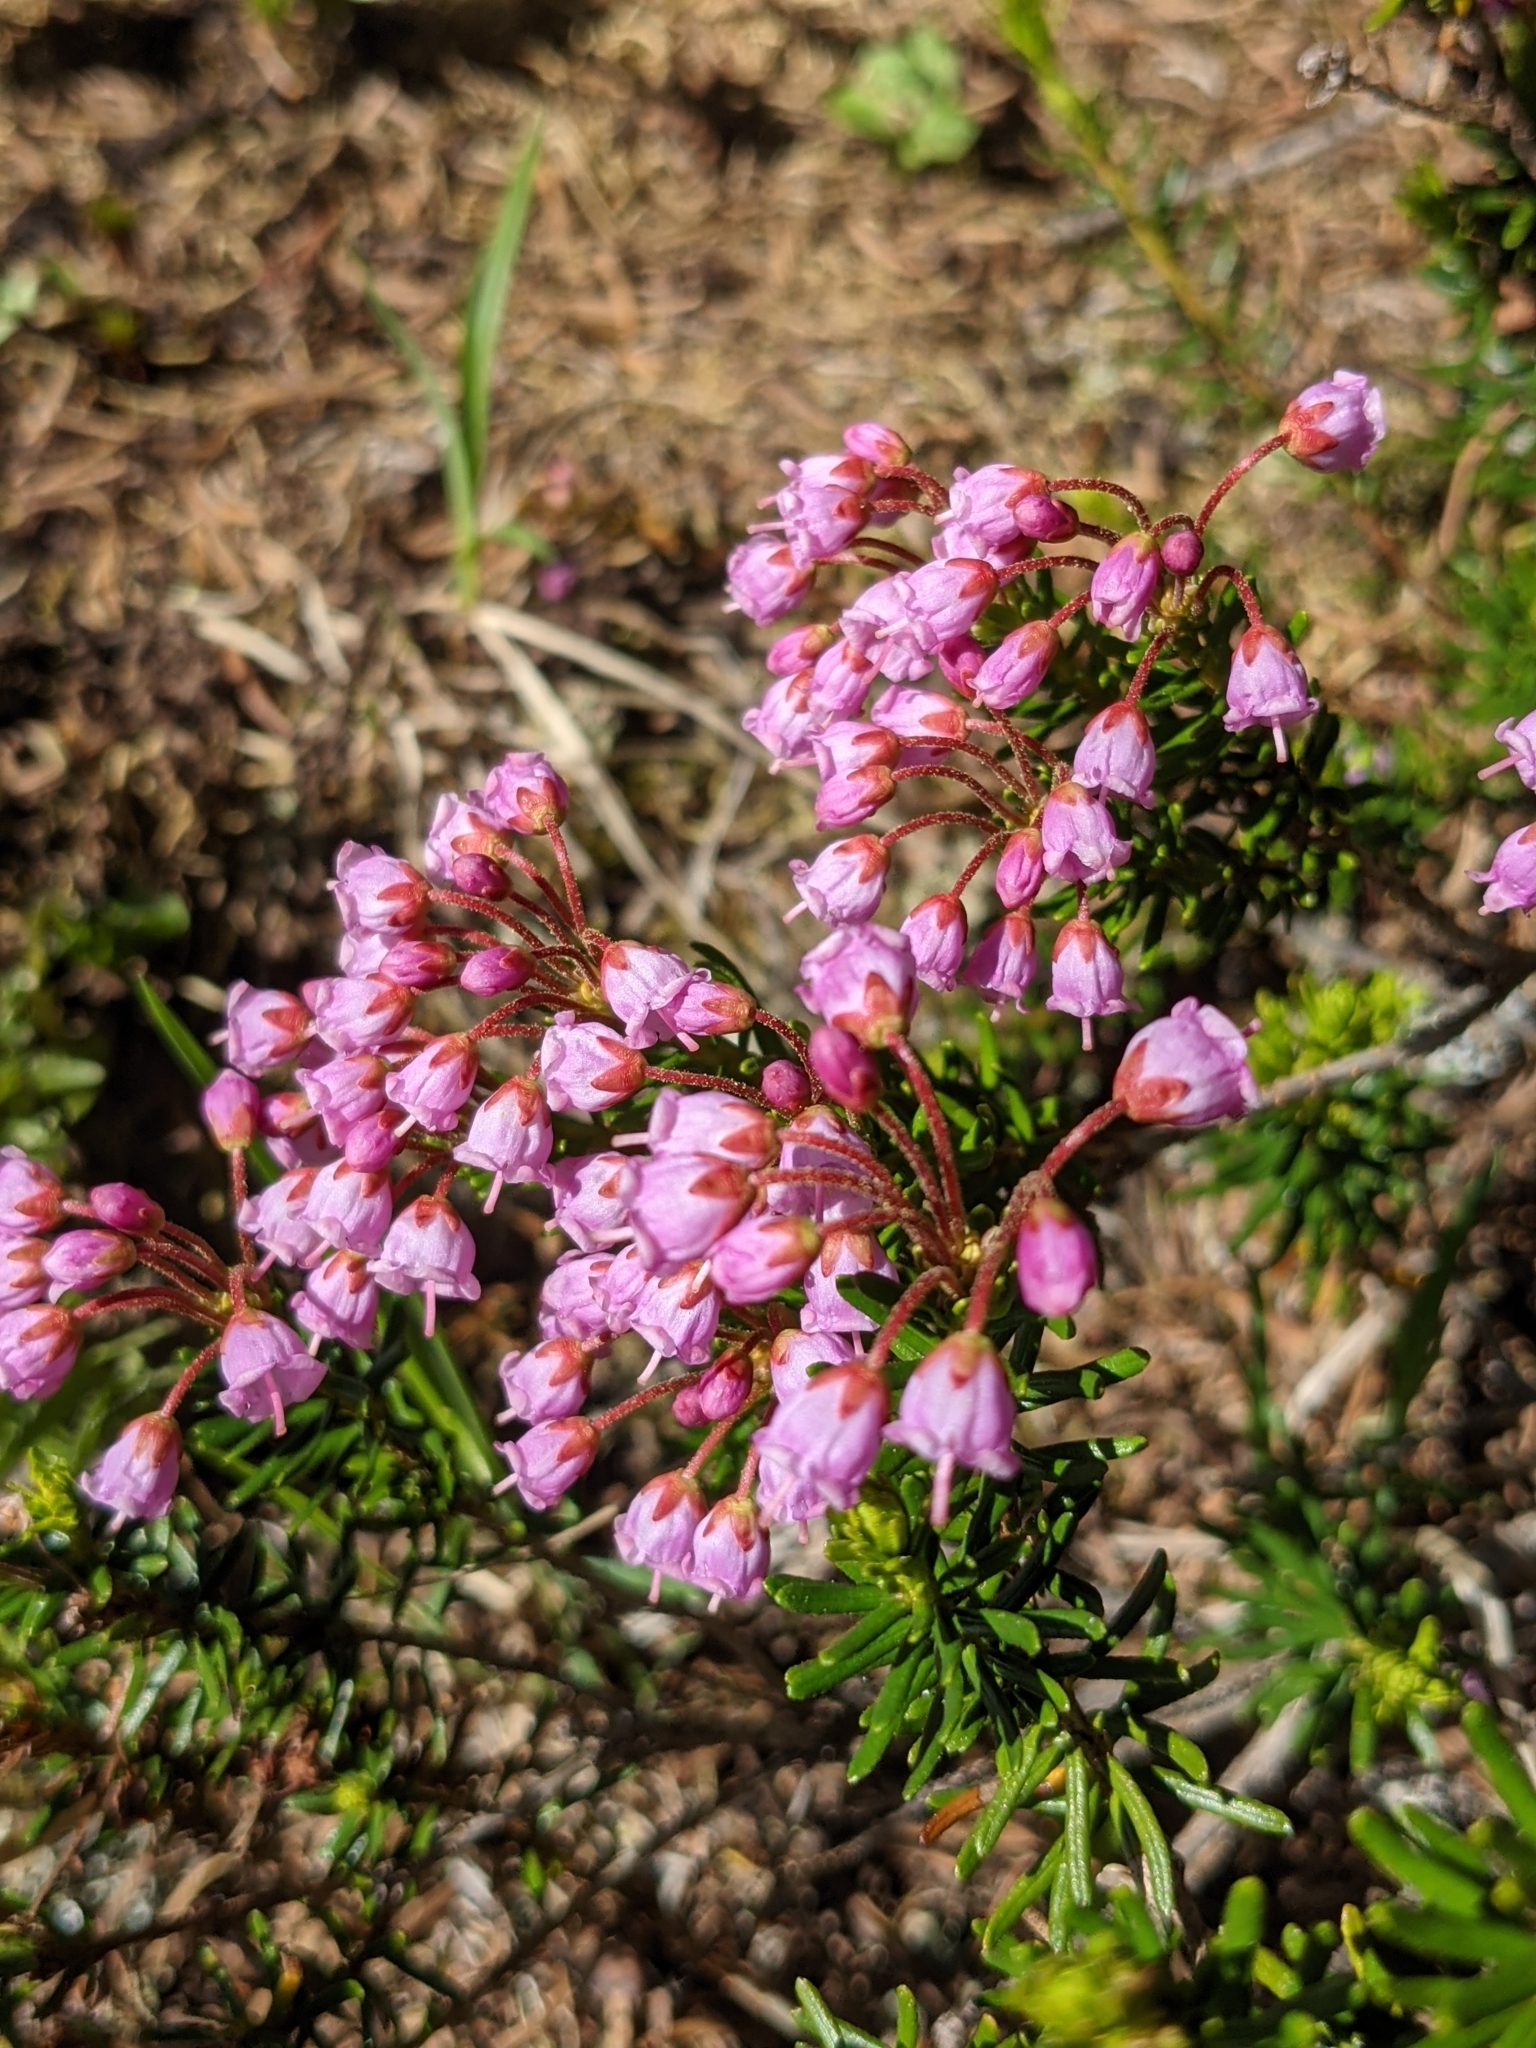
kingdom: Plantae
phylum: Tracheophyta
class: Magnoliopsida
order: Ericales
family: Ericaceae
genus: Phyllodoce
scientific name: Phyllodoce empetriformis
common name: Pink mountain heather
